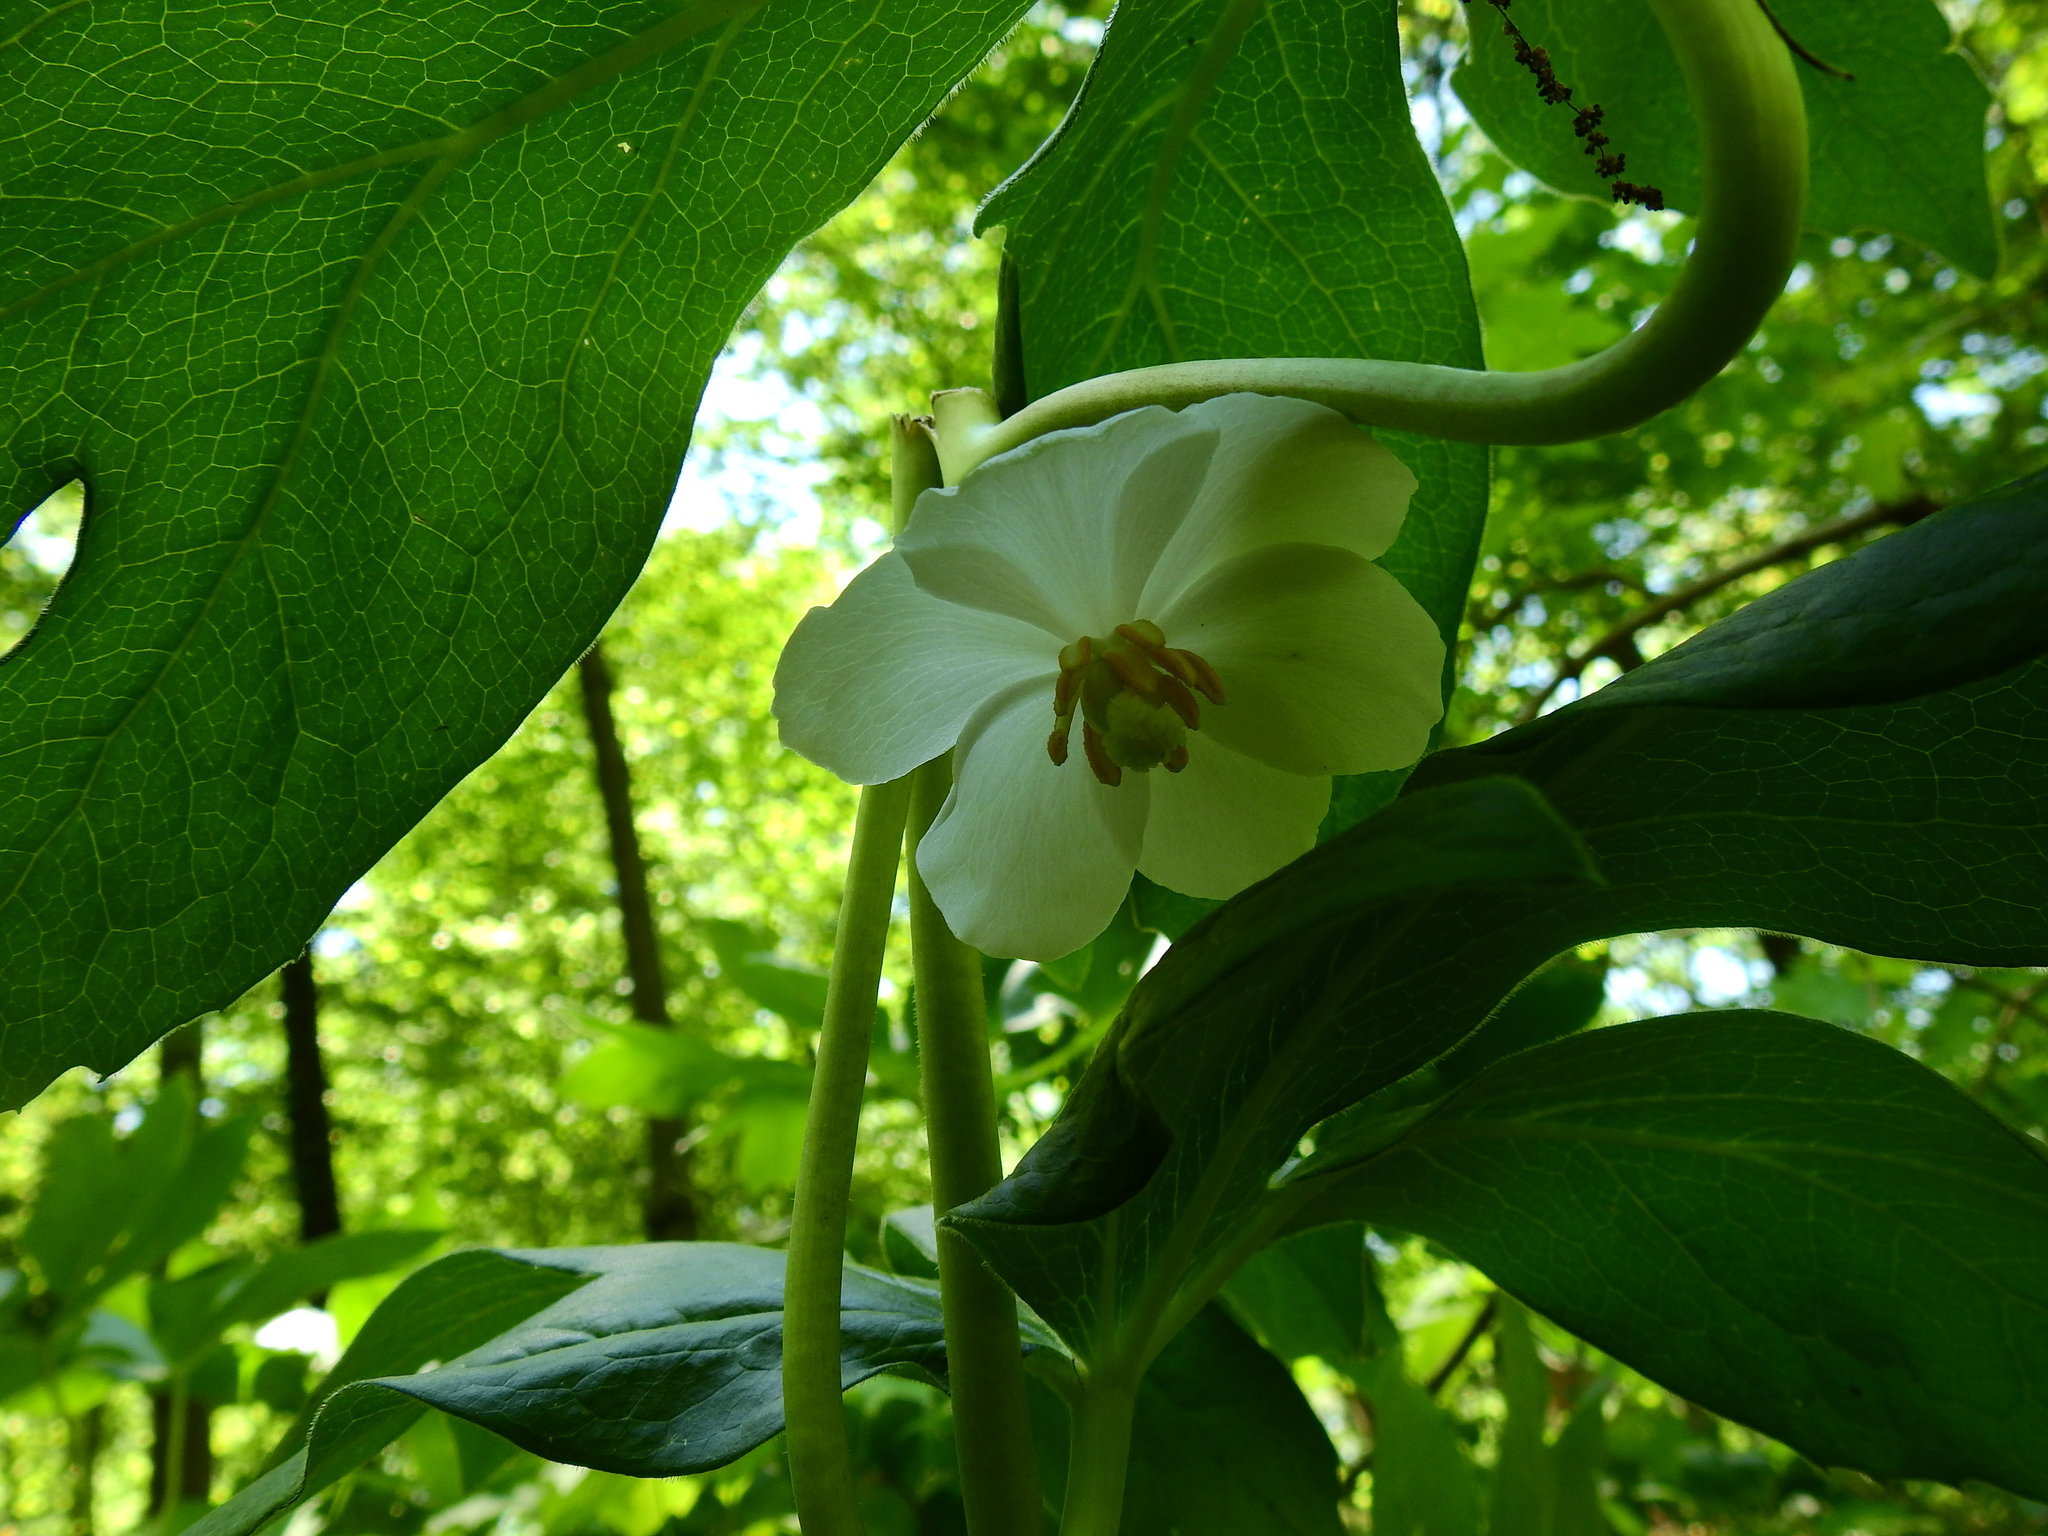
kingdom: Plantae
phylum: Tracheophyta
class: Magnoliopsida
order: Ranunculales
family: Berberidaceae
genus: Podophyllum
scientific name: Podophyllum peltatum
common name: Wild mandrake
